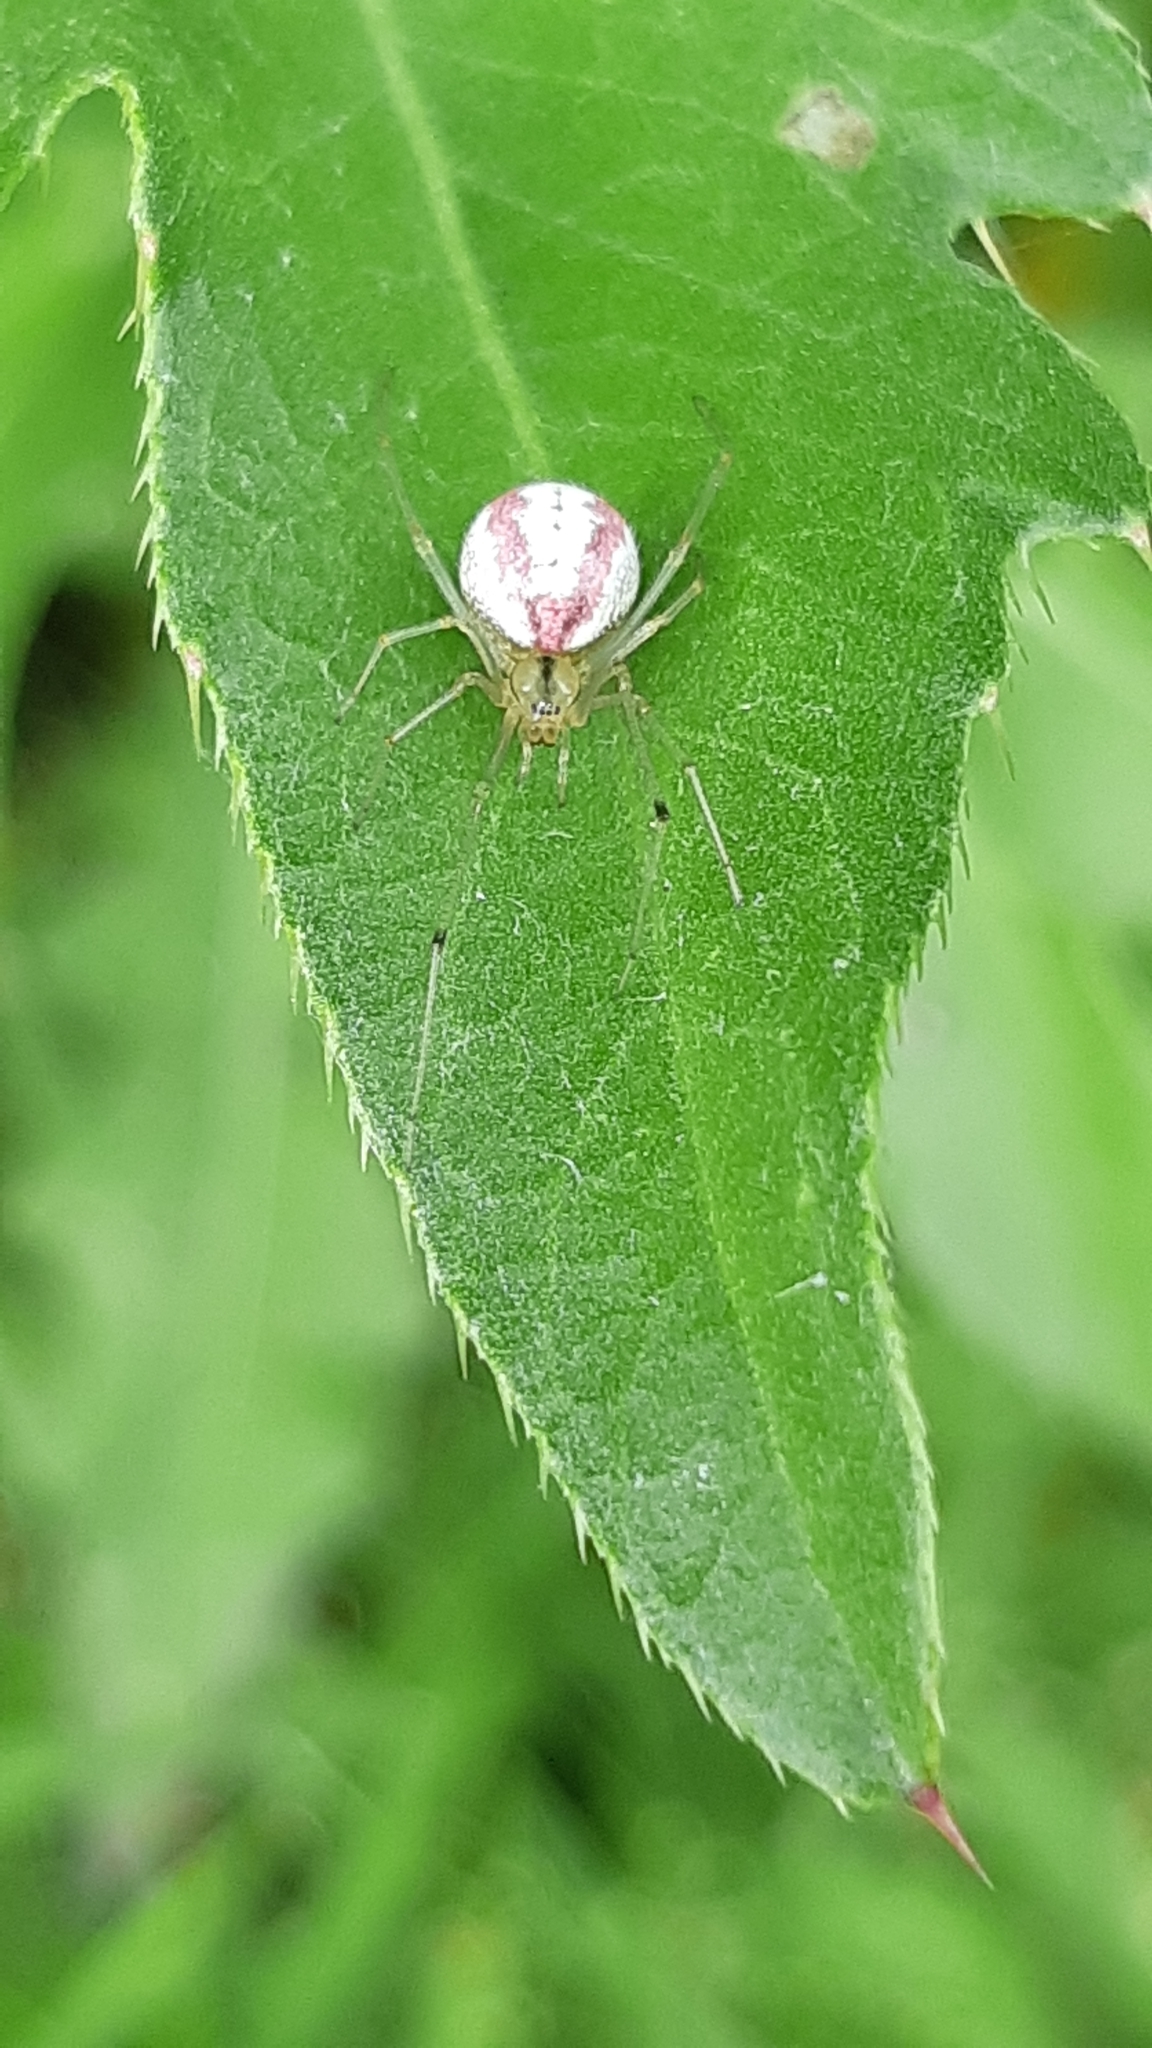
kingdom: Animalia
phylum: Arthropoda
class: Arachnida
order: Araneae
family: Theridiidae
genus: Enoplognatha
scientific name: Enoplognatha ovata
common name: Common candy-striped spider
